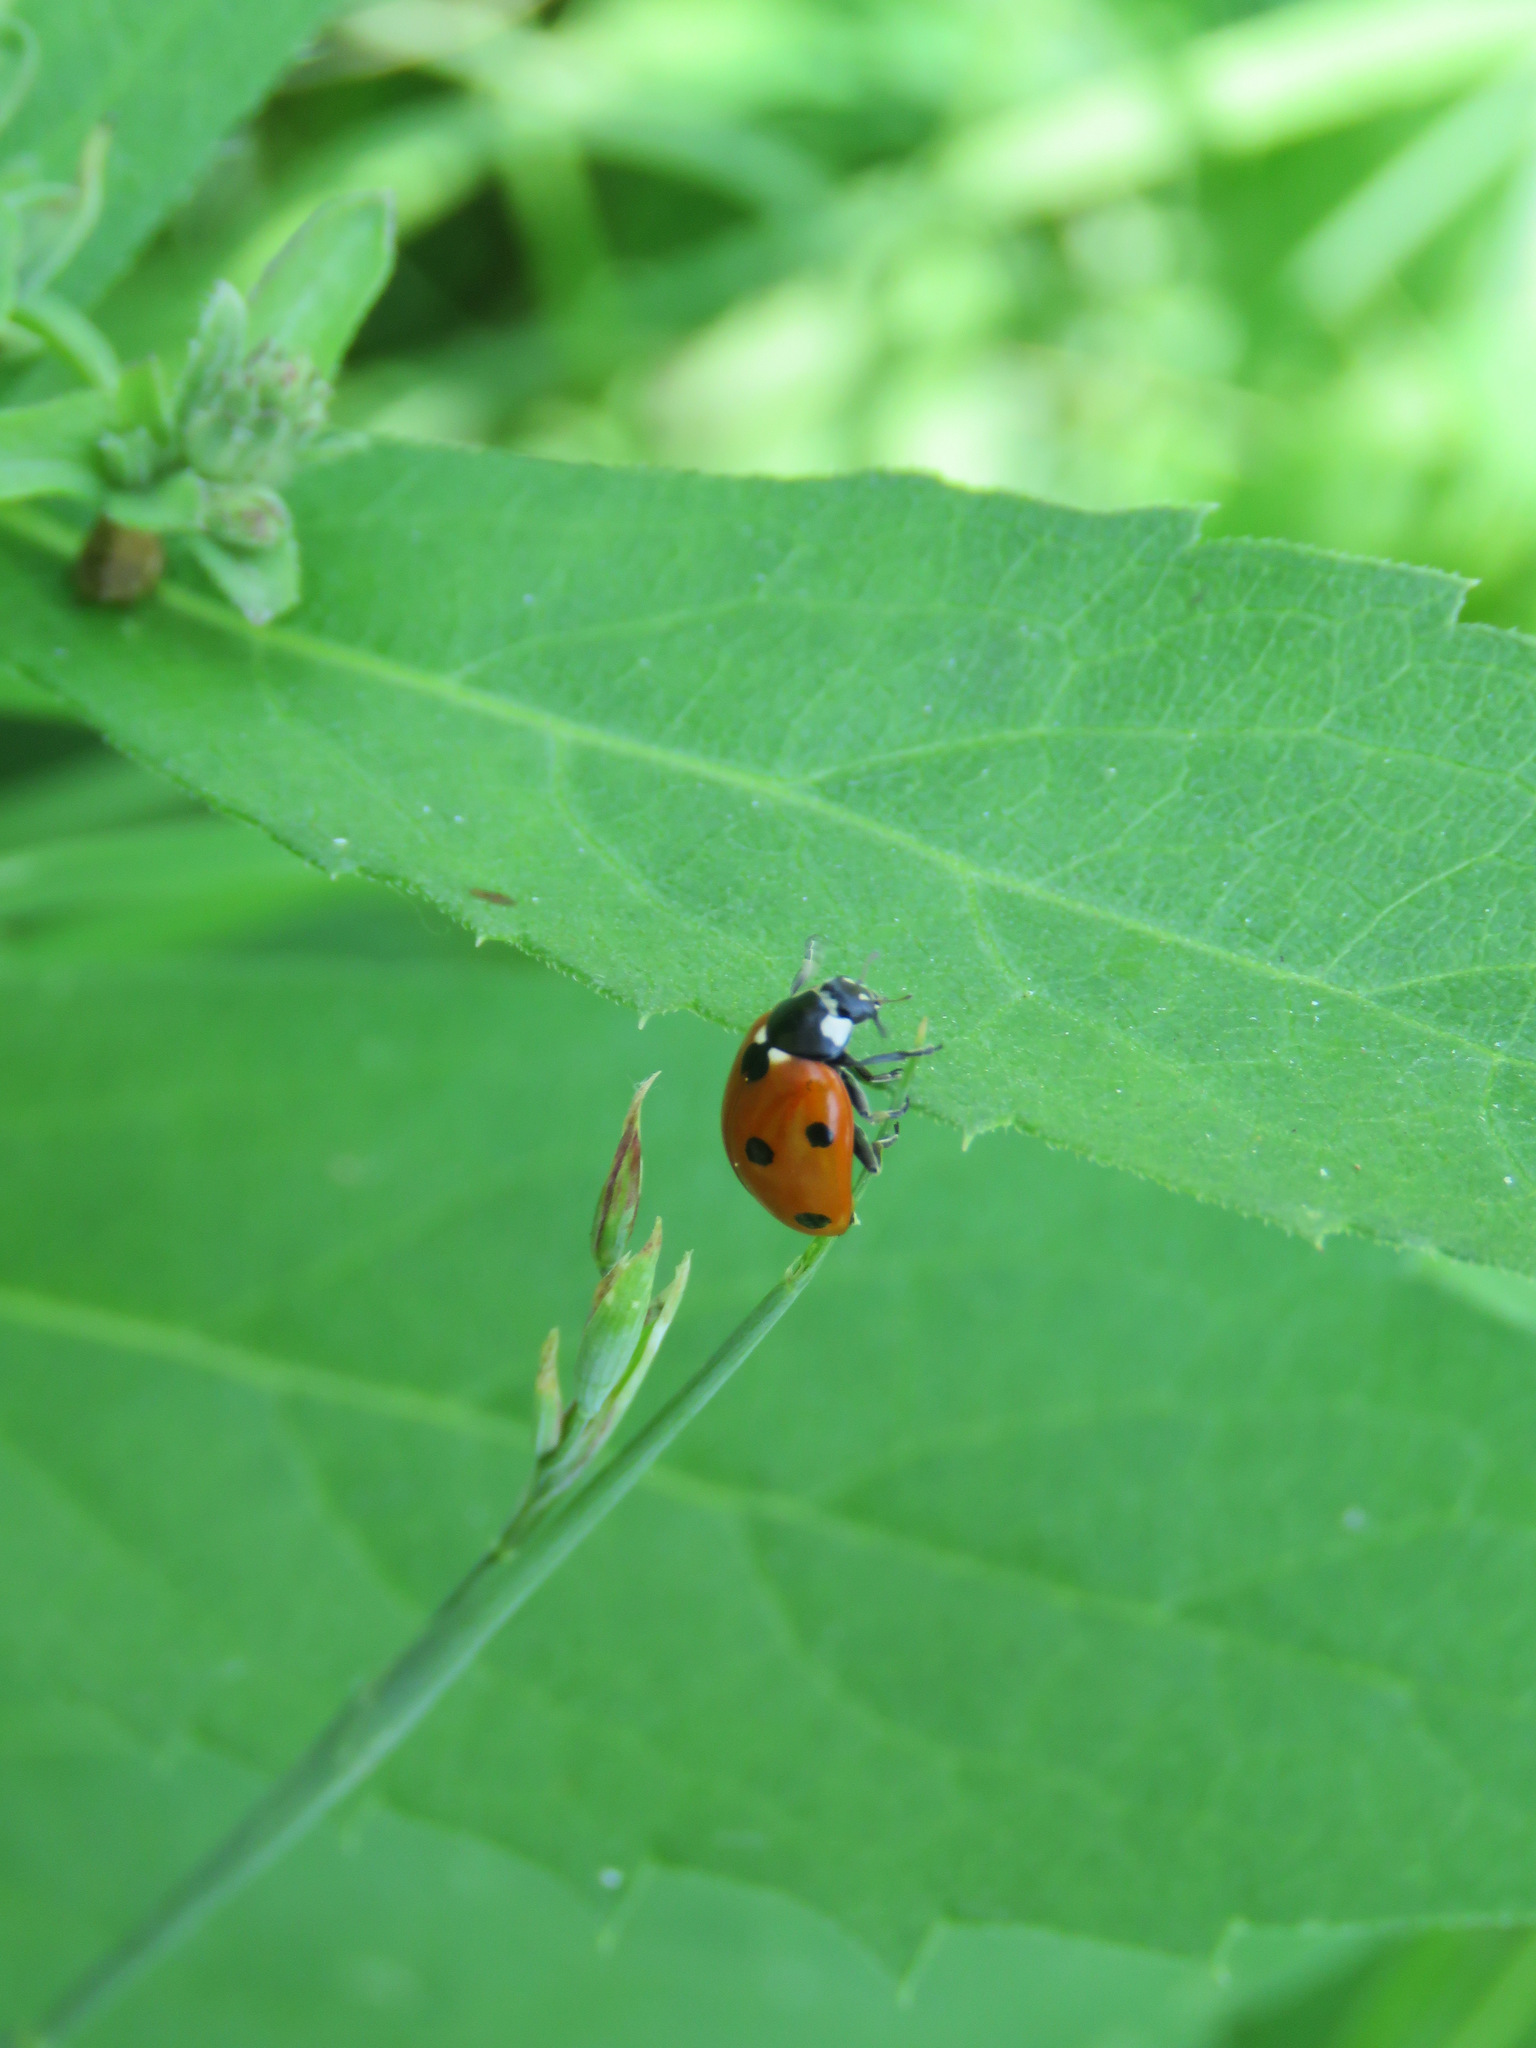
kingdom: Animalia
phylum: Arthropoda
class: Insecta
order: Coleoptera
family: Coccinellidae
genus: Coccinella
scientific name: Coccinella septempunctata
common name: Sevenspotted lady beetle
